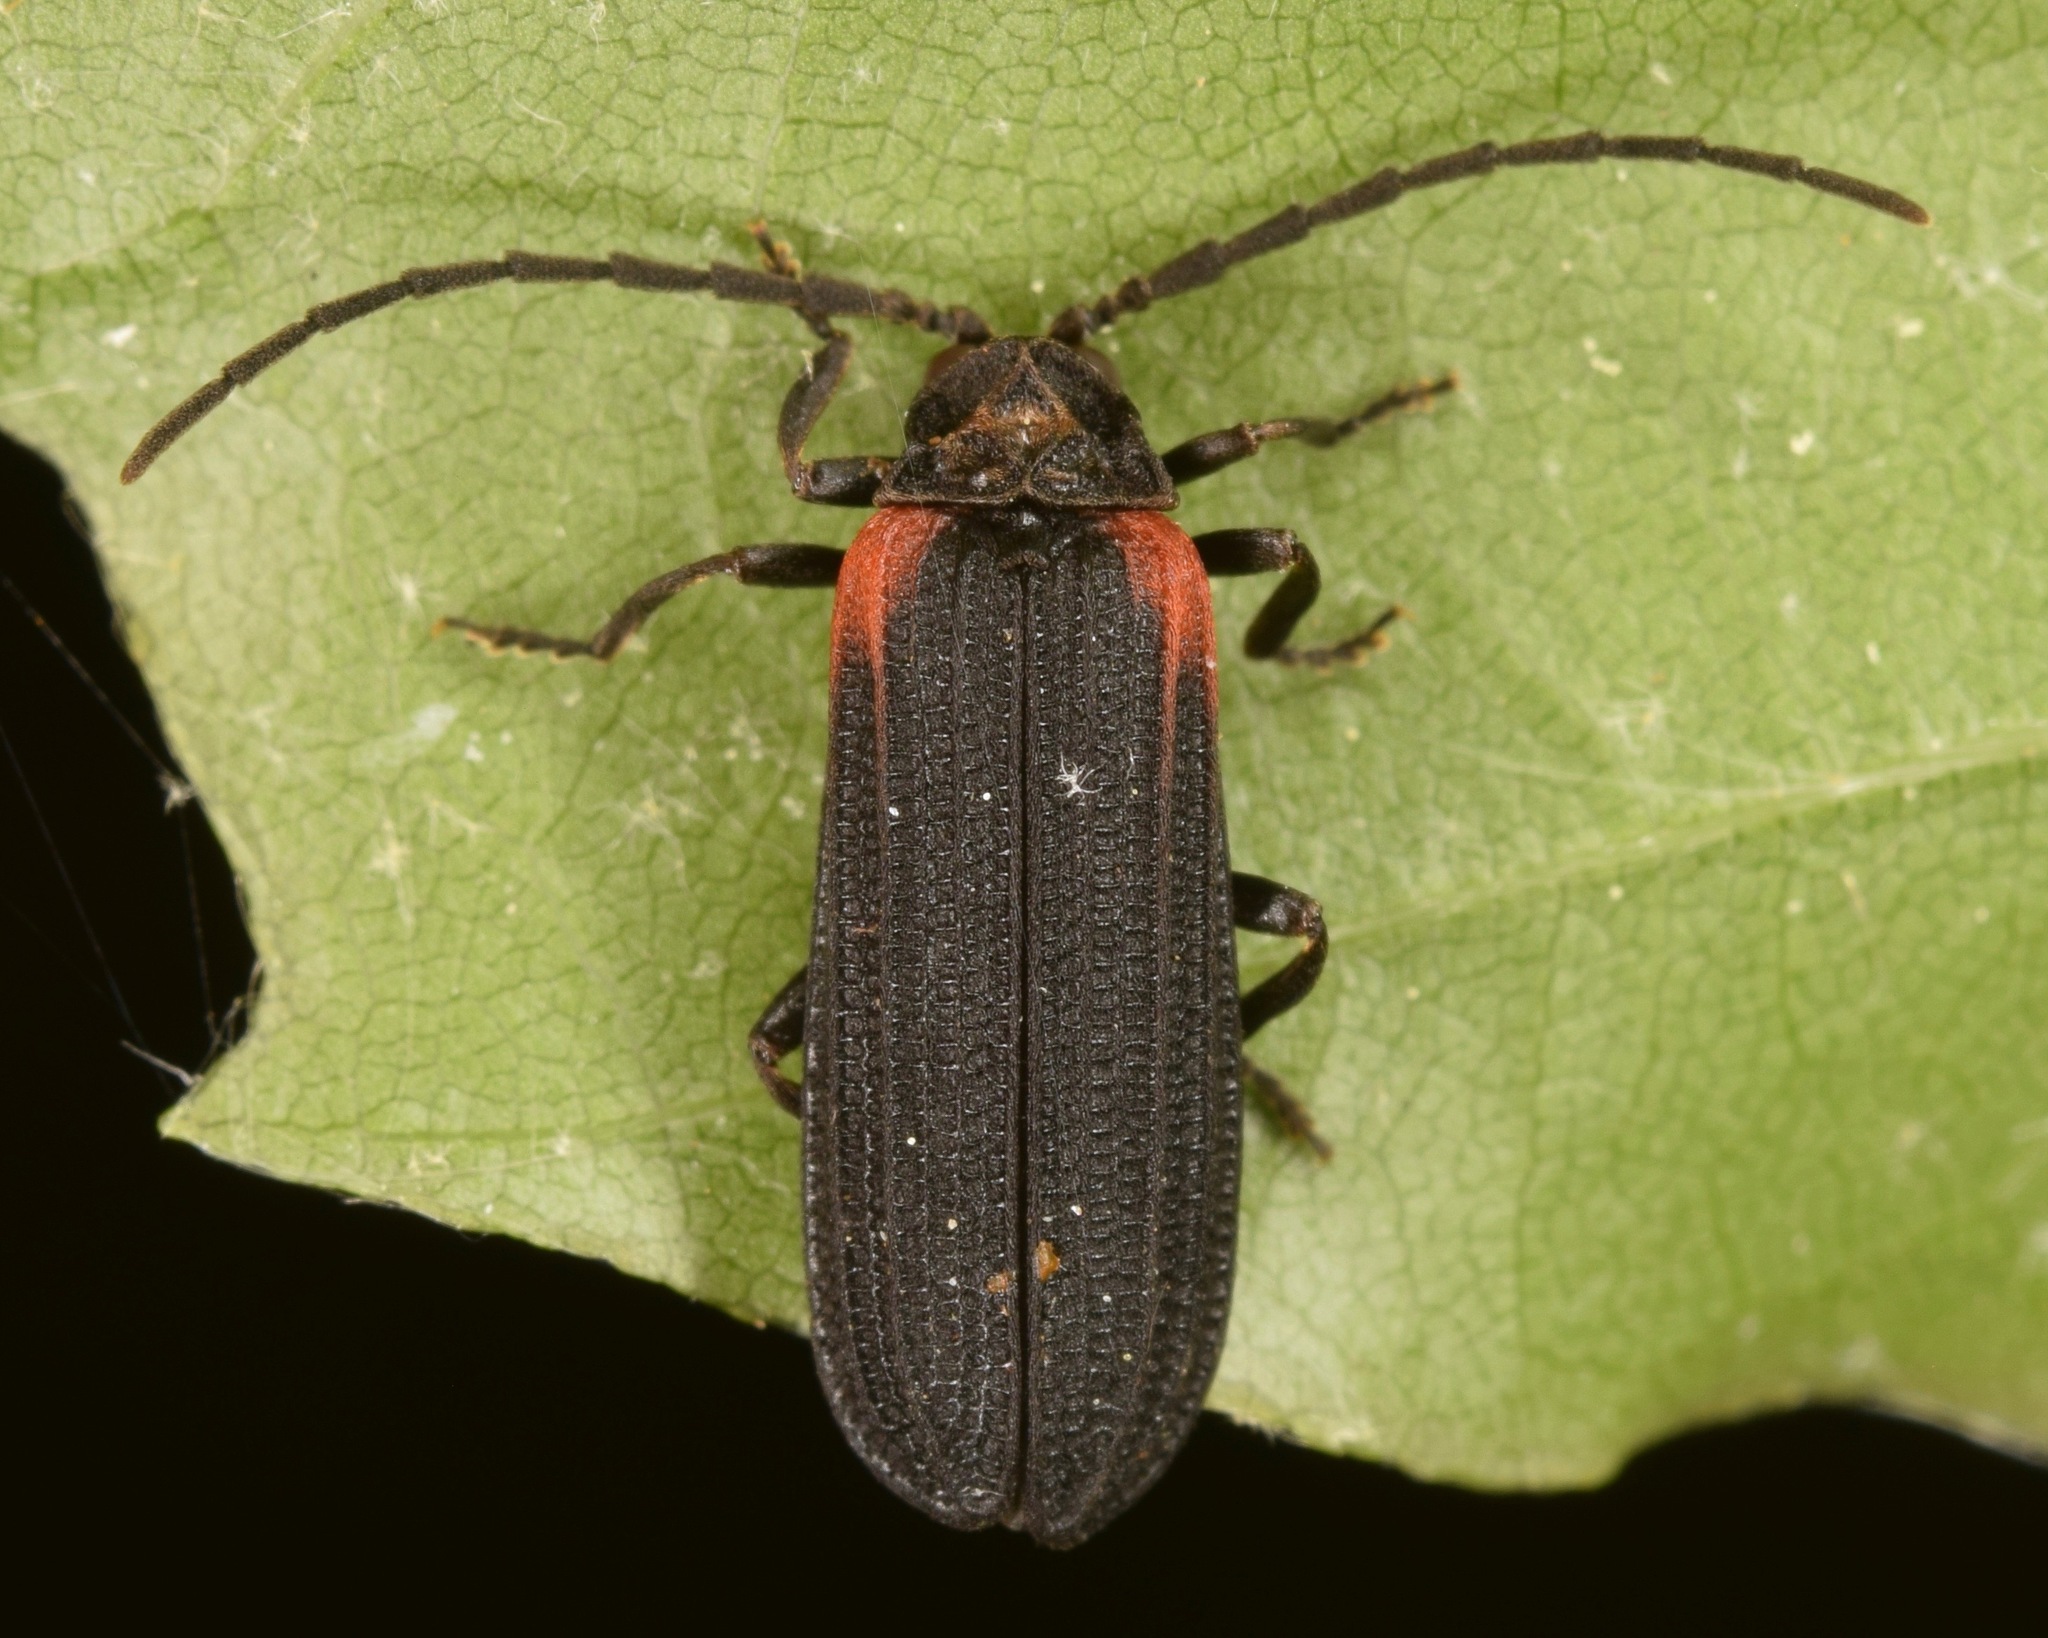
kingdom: Animalia
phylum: Arthropoda
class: Insecta
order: Coleoptera
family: Lycidae
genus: Greenarus
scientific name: Greenarus thoracicus
